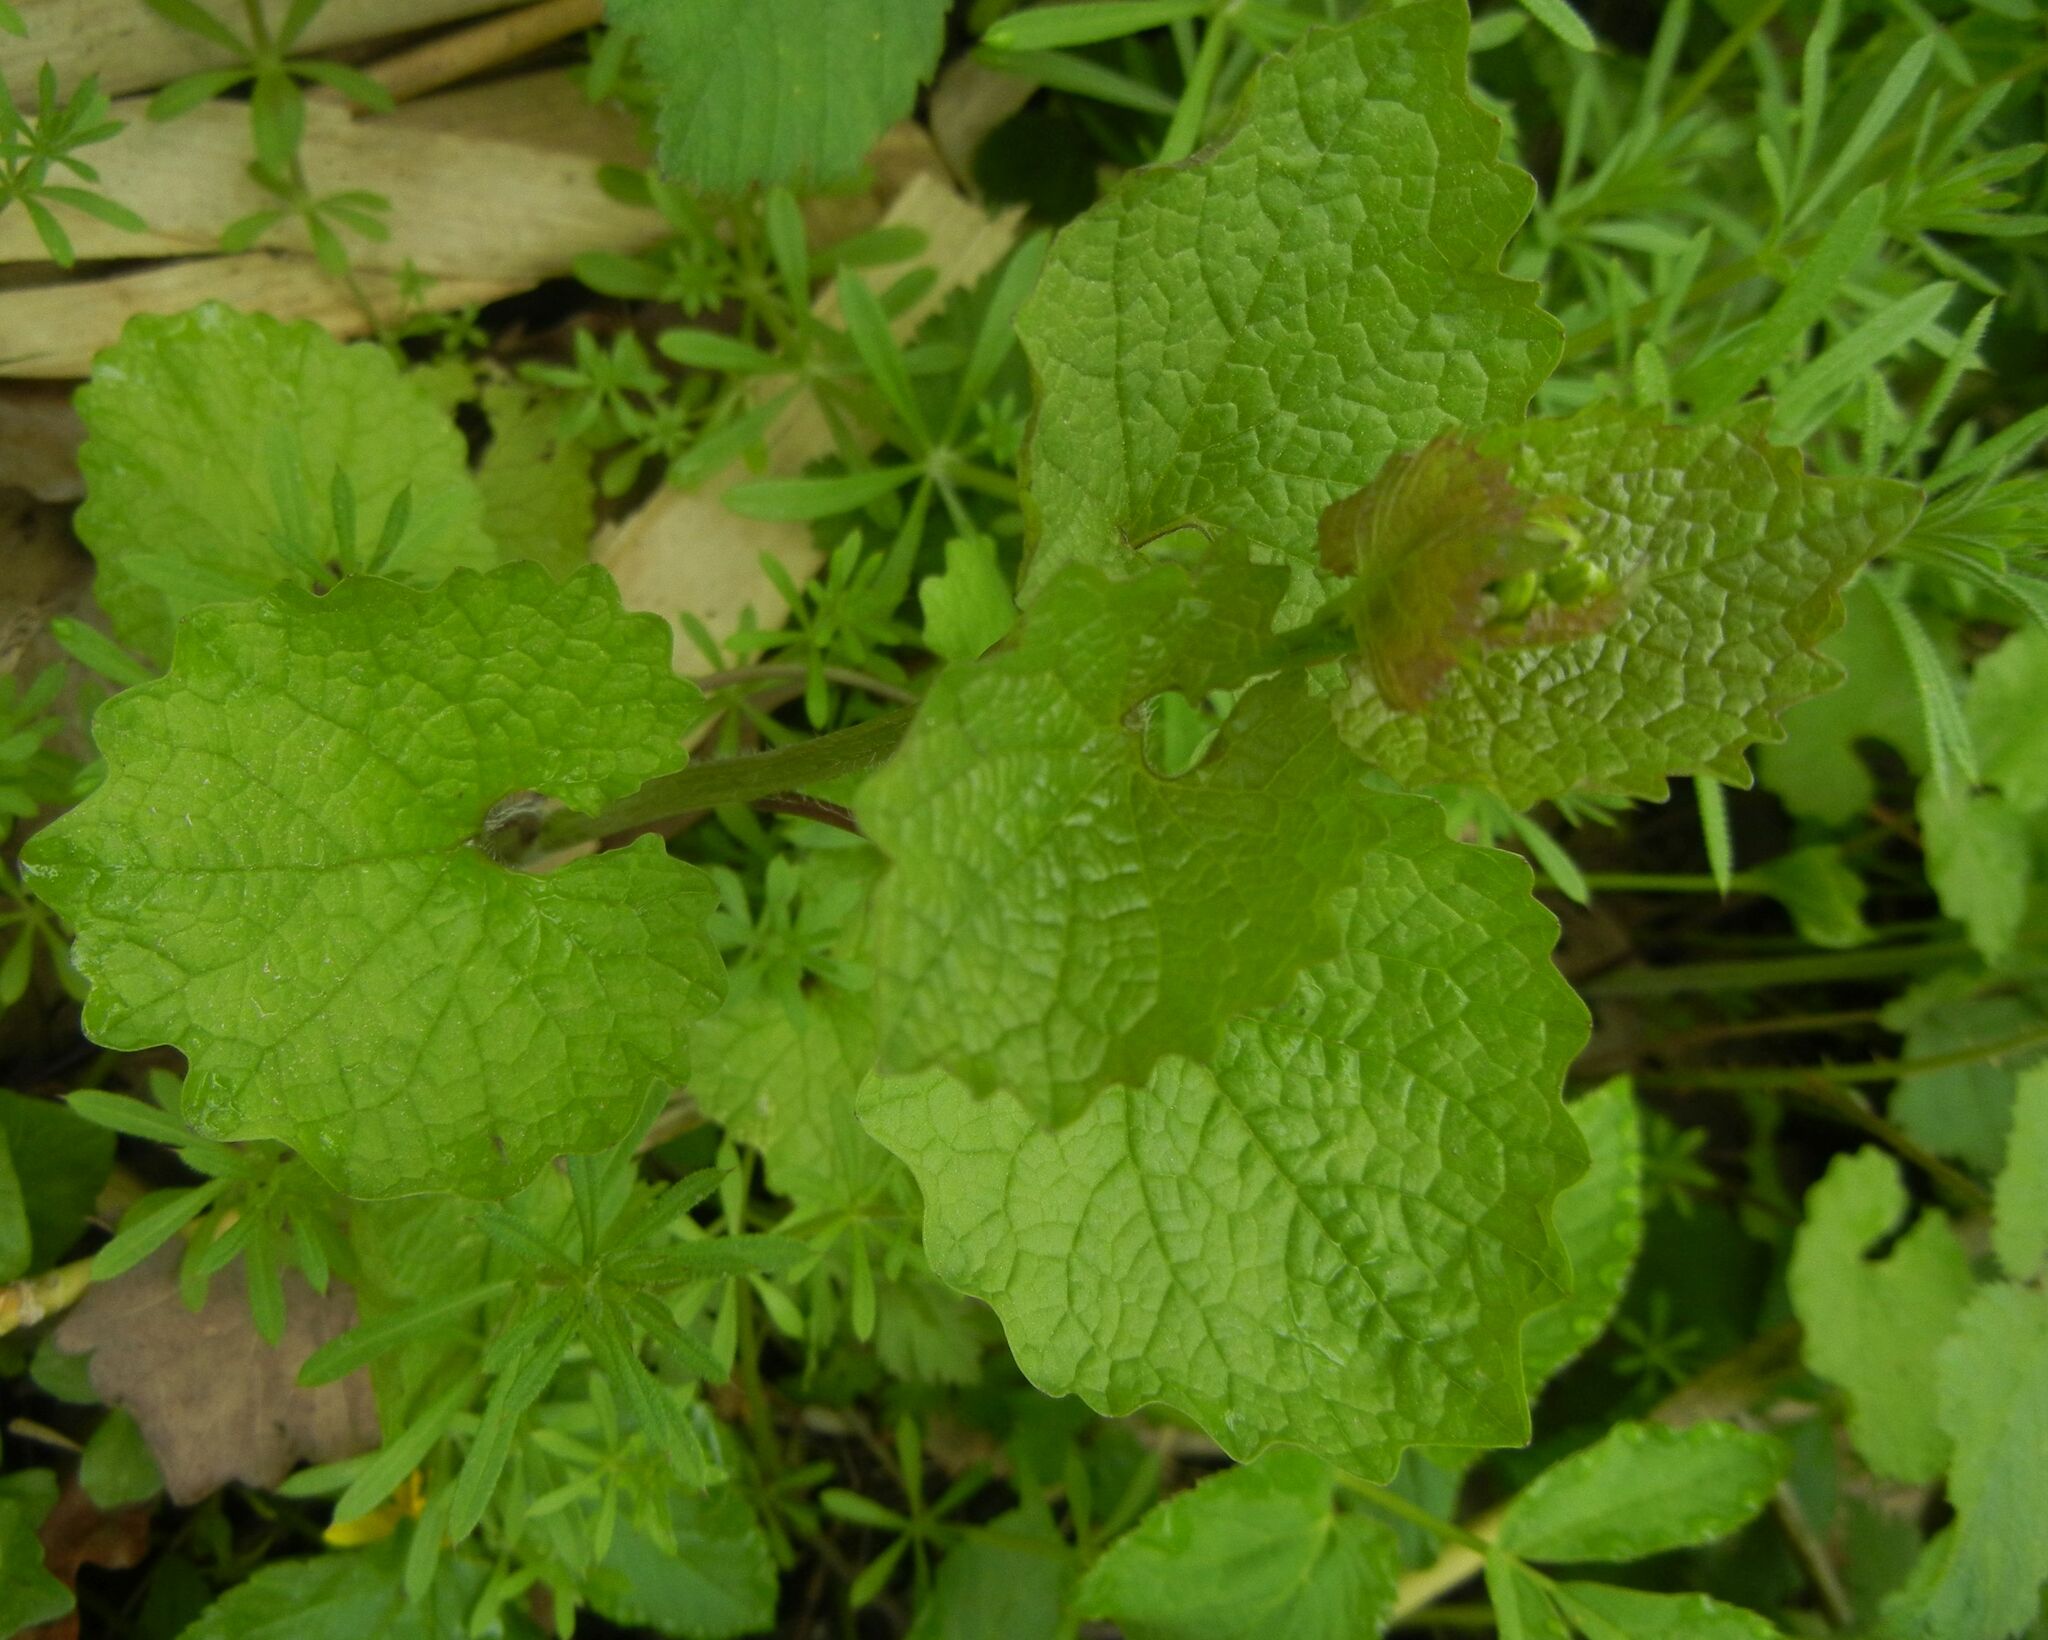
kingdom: Plantae
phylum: Tracheophyta
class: Magnoliopsida
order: Brassicales
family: Brassicaceae
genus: Alliaria
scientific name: Alliaria petiolata
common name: Garlic mustard
